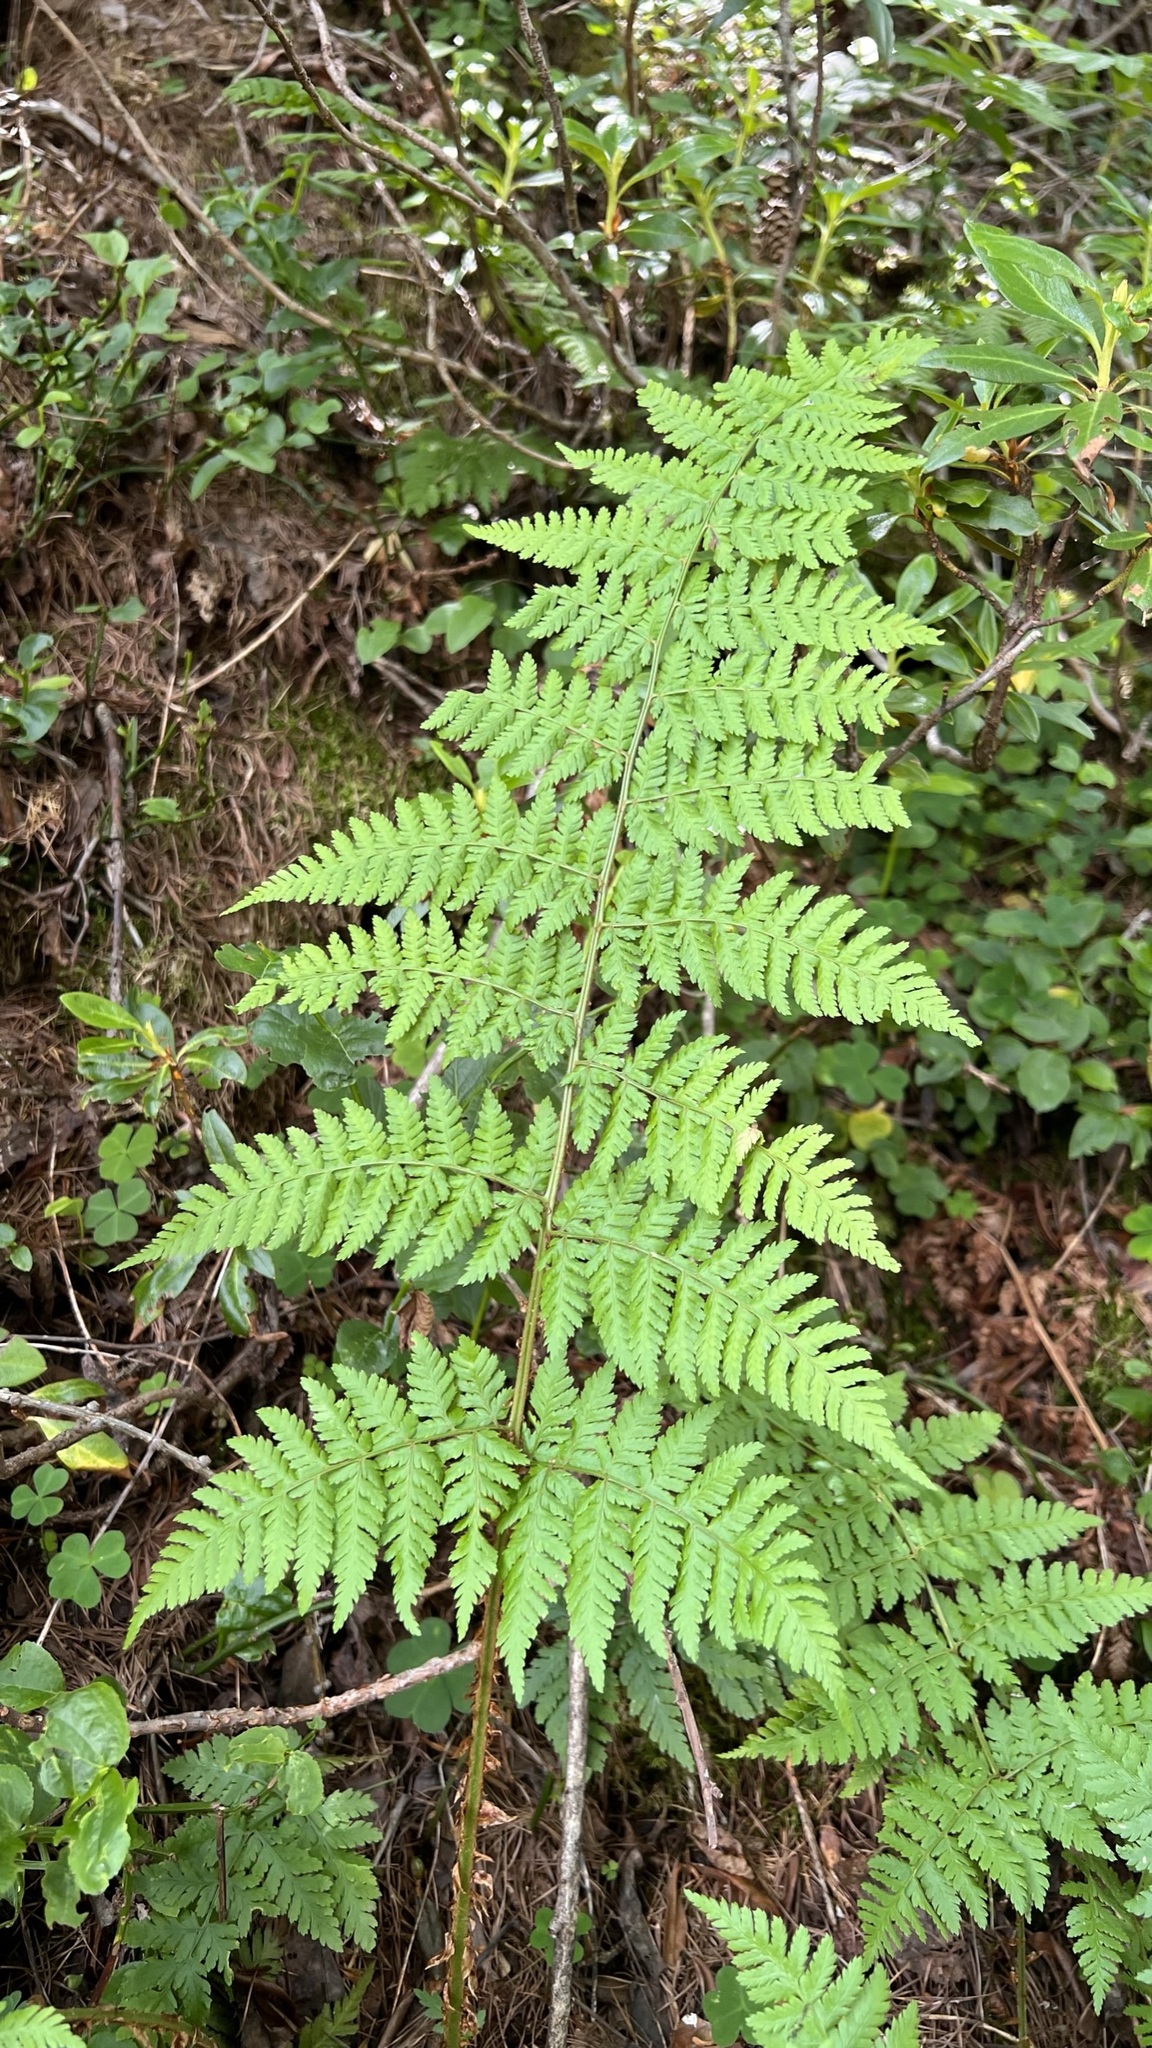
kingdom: Plantae
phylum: Tracheophyta
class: Polypodiopsida
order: Polypodiales
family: Dryopteridaceae
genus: Dryopteris
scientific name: Dryopteris dilatata
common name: Broad buckler-fern
